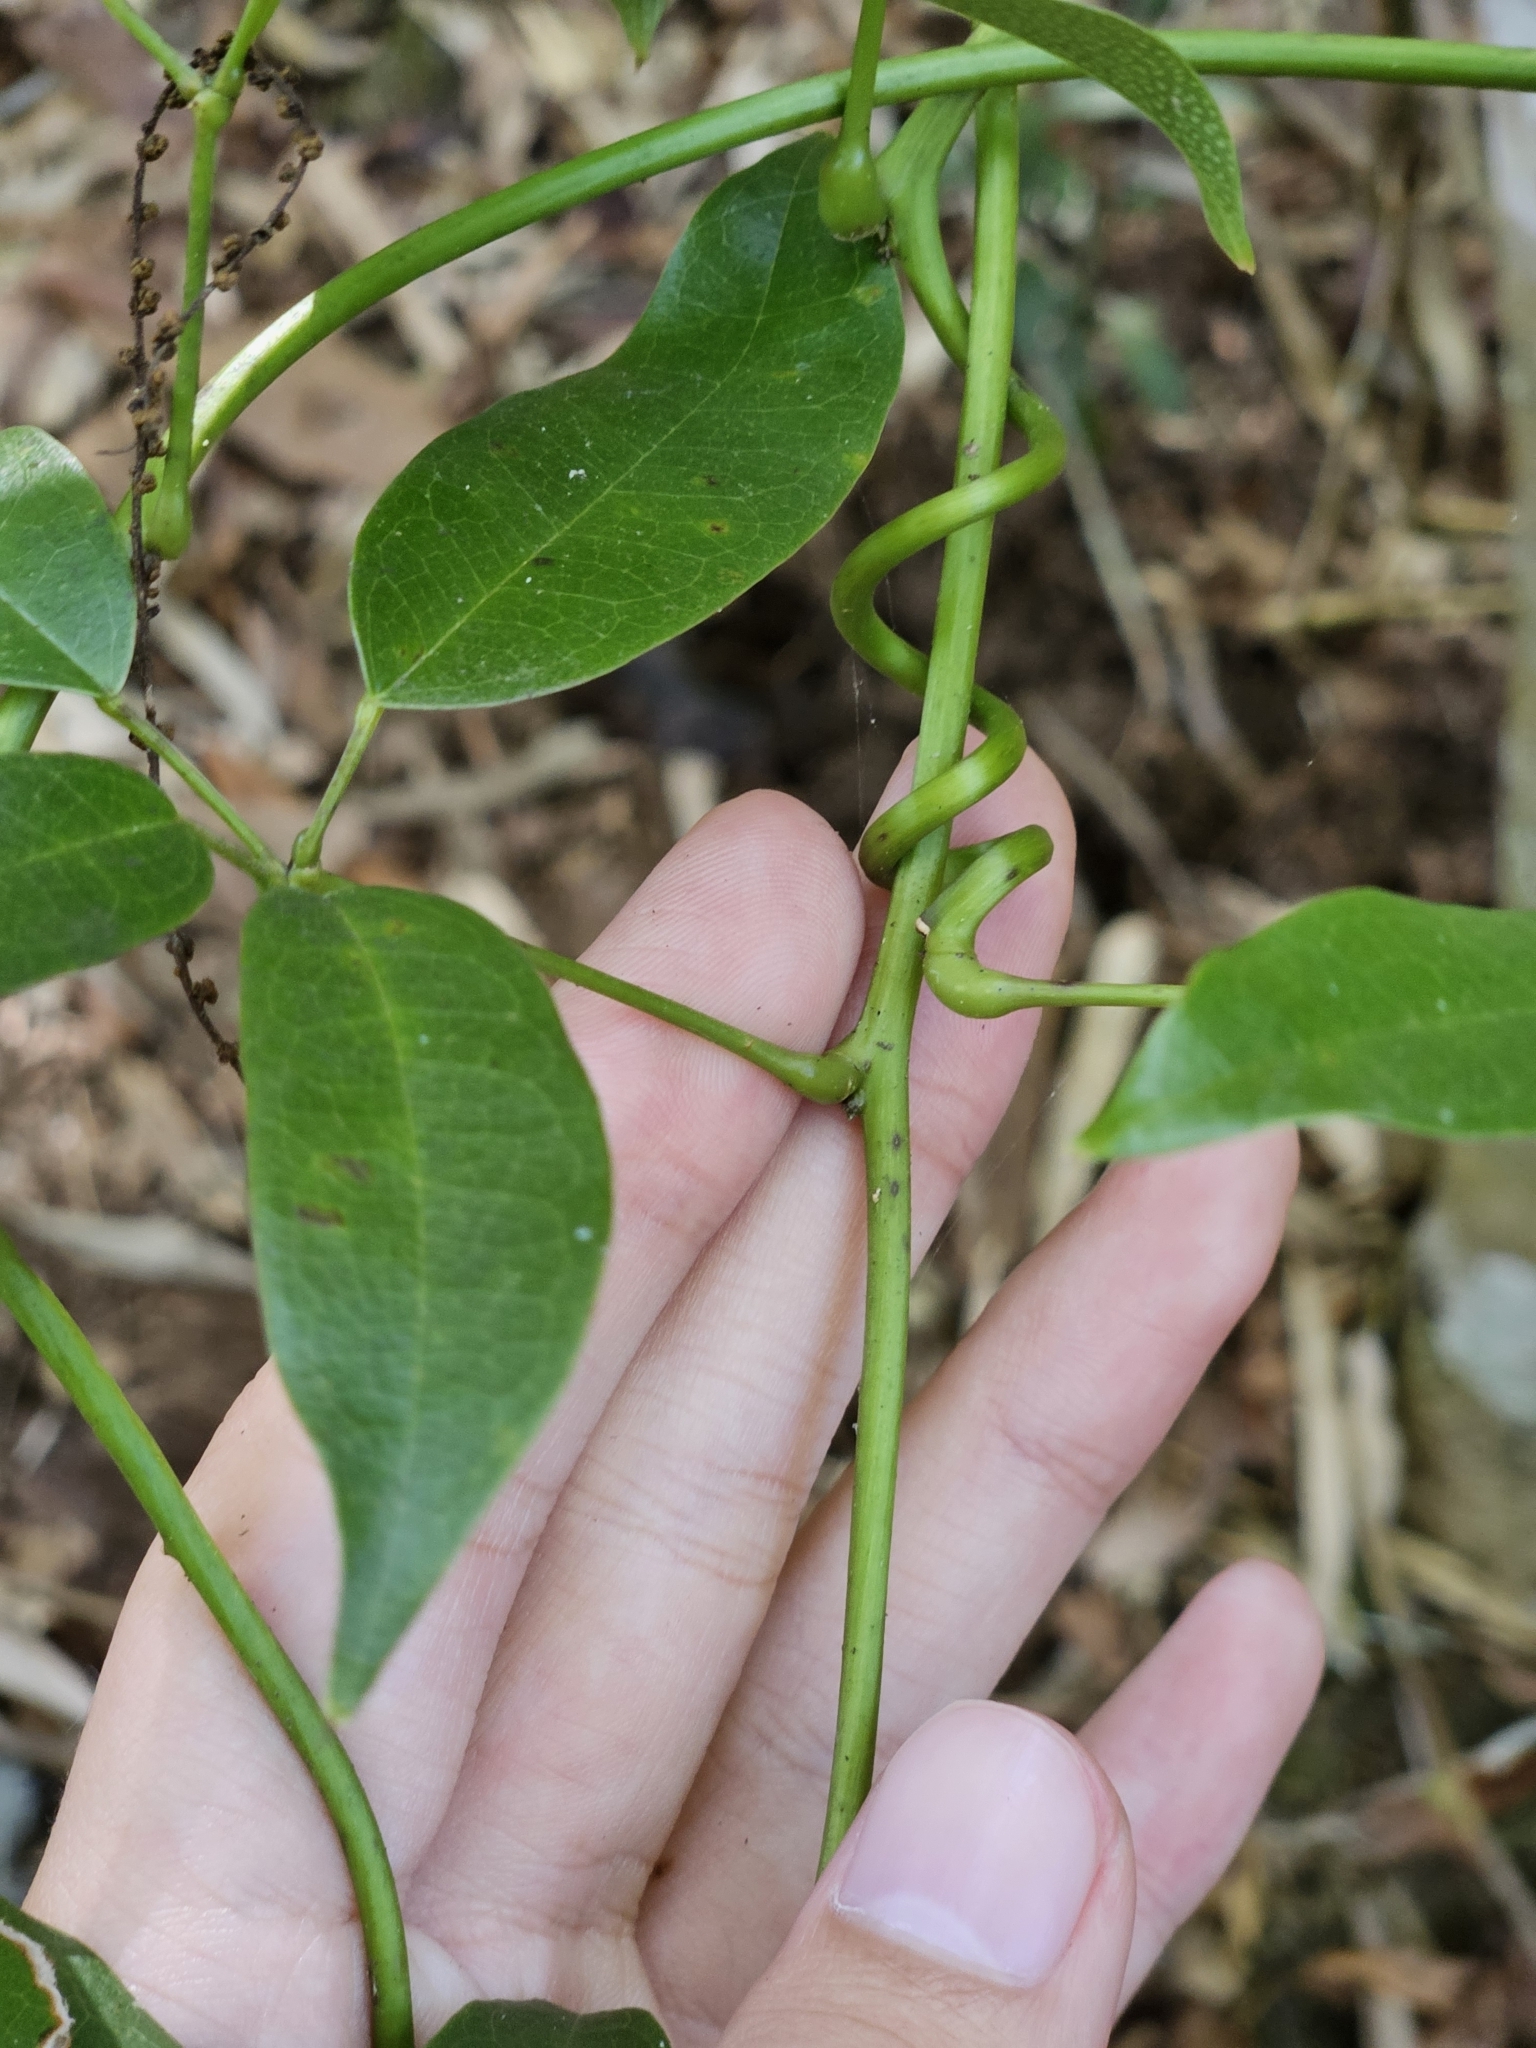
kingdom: Plantae
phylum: Tracheophyta
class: Magnoliopsida
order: Ranunculales
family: Lardizabalaceae
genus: Stauntonia
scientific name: Stauntonia obovatifoliola
